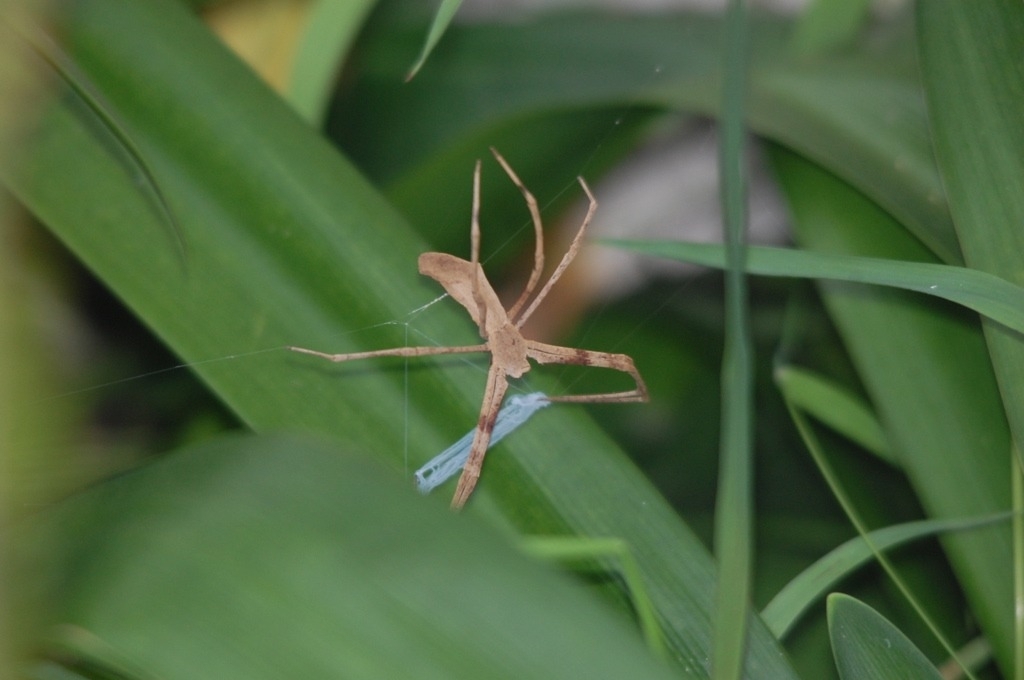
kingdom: Animalia
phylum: Arthropoda
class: Arachnida
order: Araneae
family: Deinopidae
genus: Deinopis
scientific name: Deinopis subrufa
